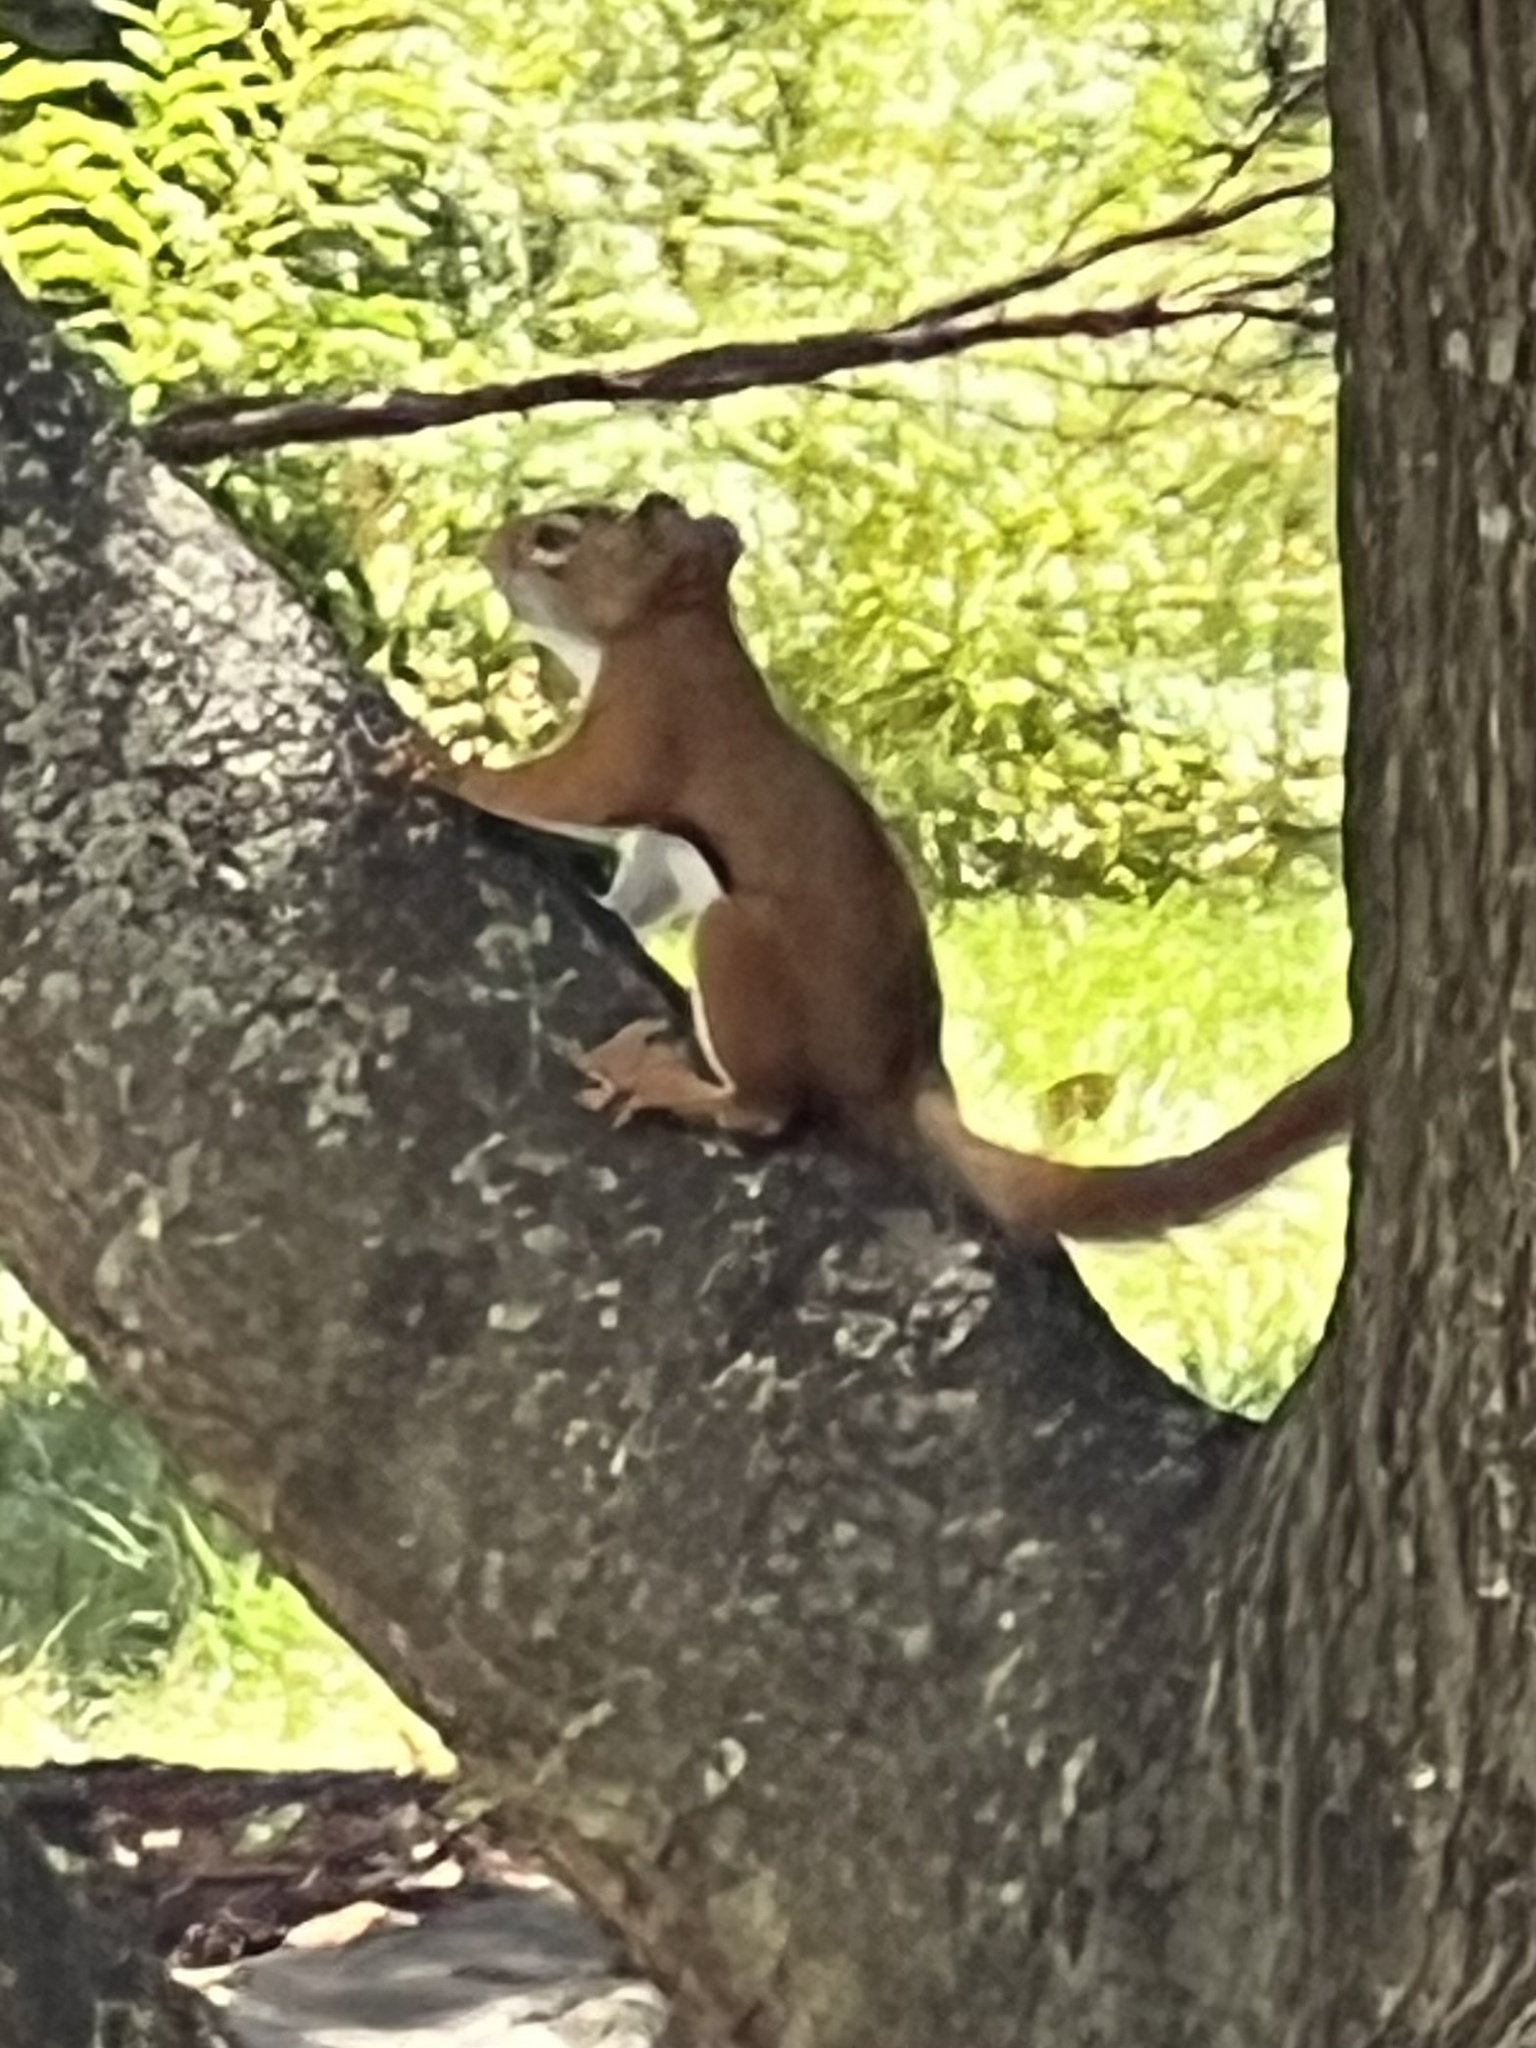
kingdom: Animalia
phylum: Chordata
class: Mammalia
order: Rodentia
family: Sciuridae
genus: Tamiasciurus
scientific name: Tamiasciurus hudsonicus
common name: Red squirrel
